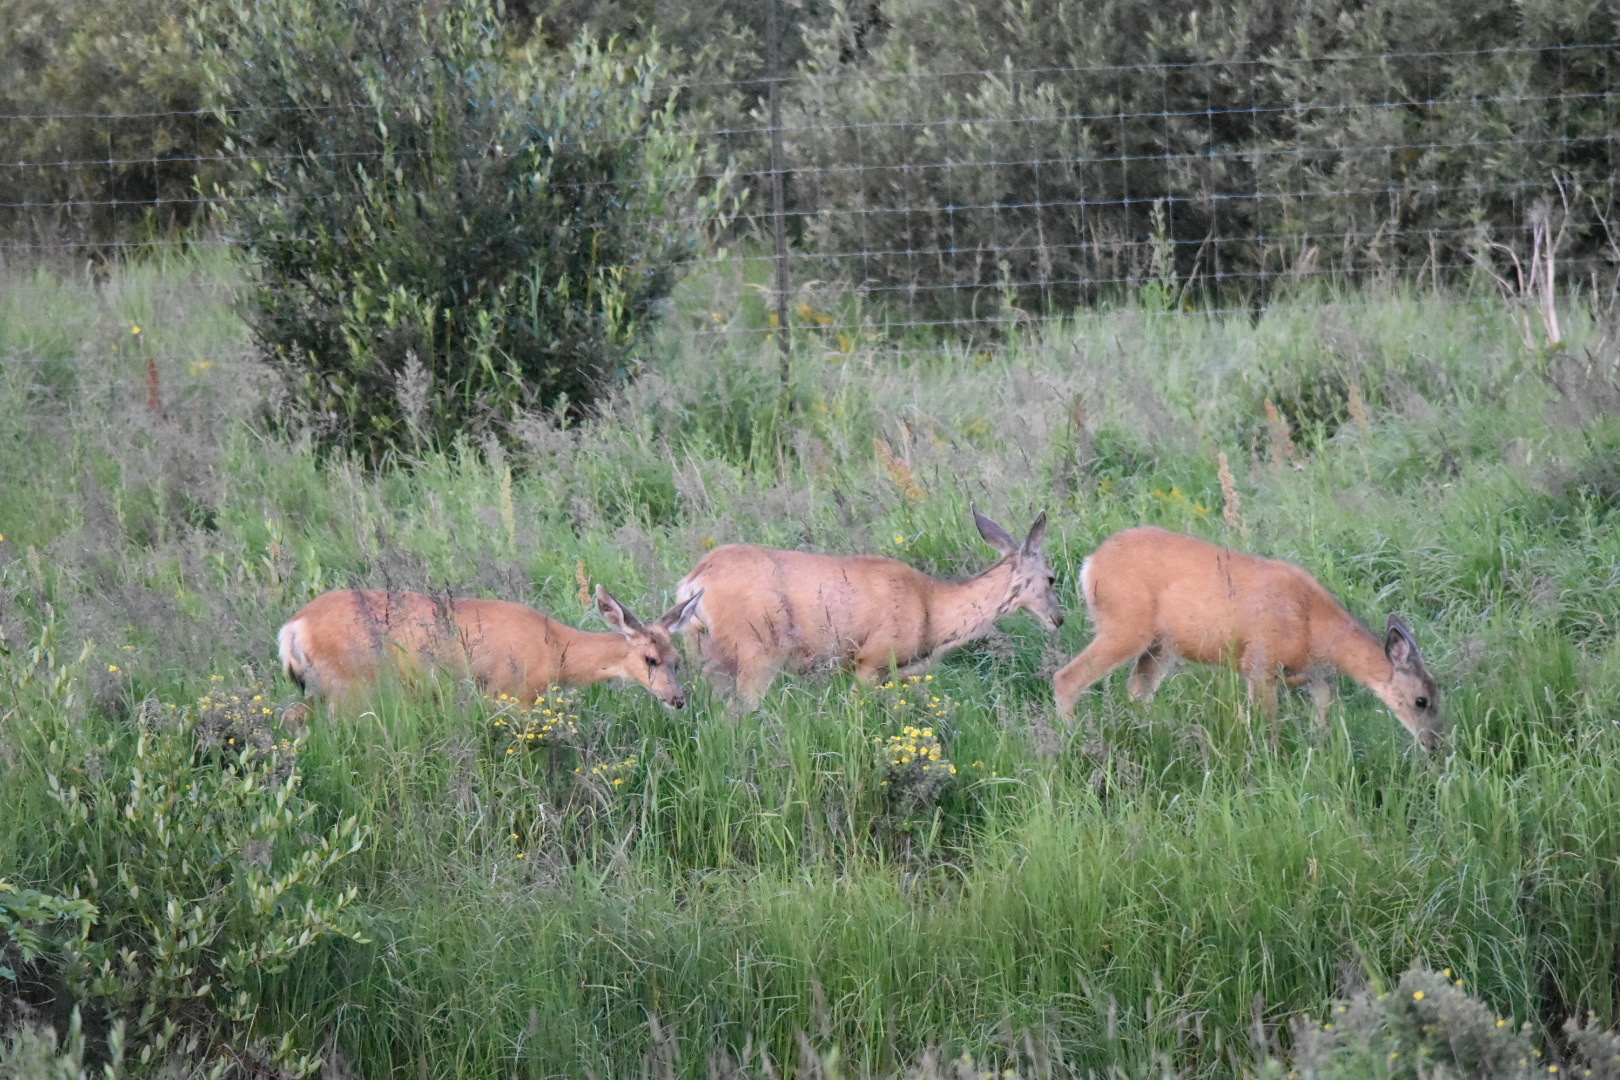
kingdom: Animalia
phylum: Chordata
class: Mammalia
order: Artiodactyla
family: Cervidae
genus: Odocoileus
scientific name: Odocoileus hemionus
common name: Mule deer
